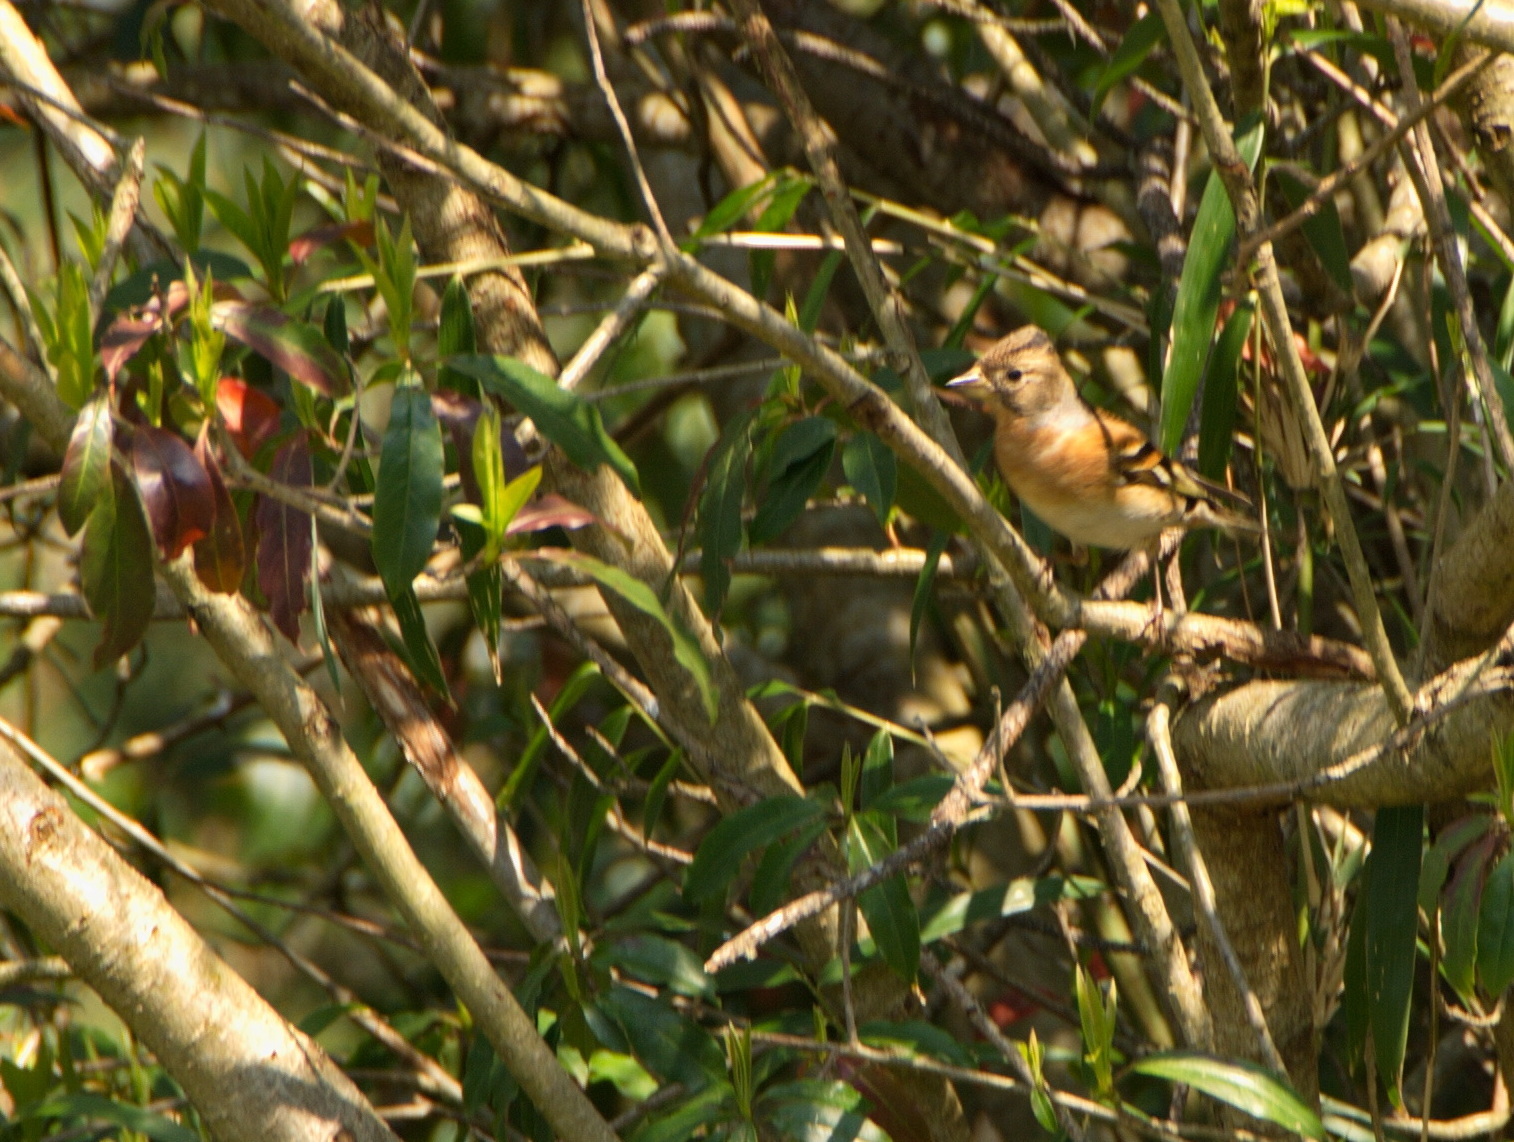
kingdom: Animalia
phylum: Chordata
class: Aves
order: Passeriformes
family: Fringillidae
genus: Fringilla
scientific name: Fringilla montifringilla
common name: Brambling
